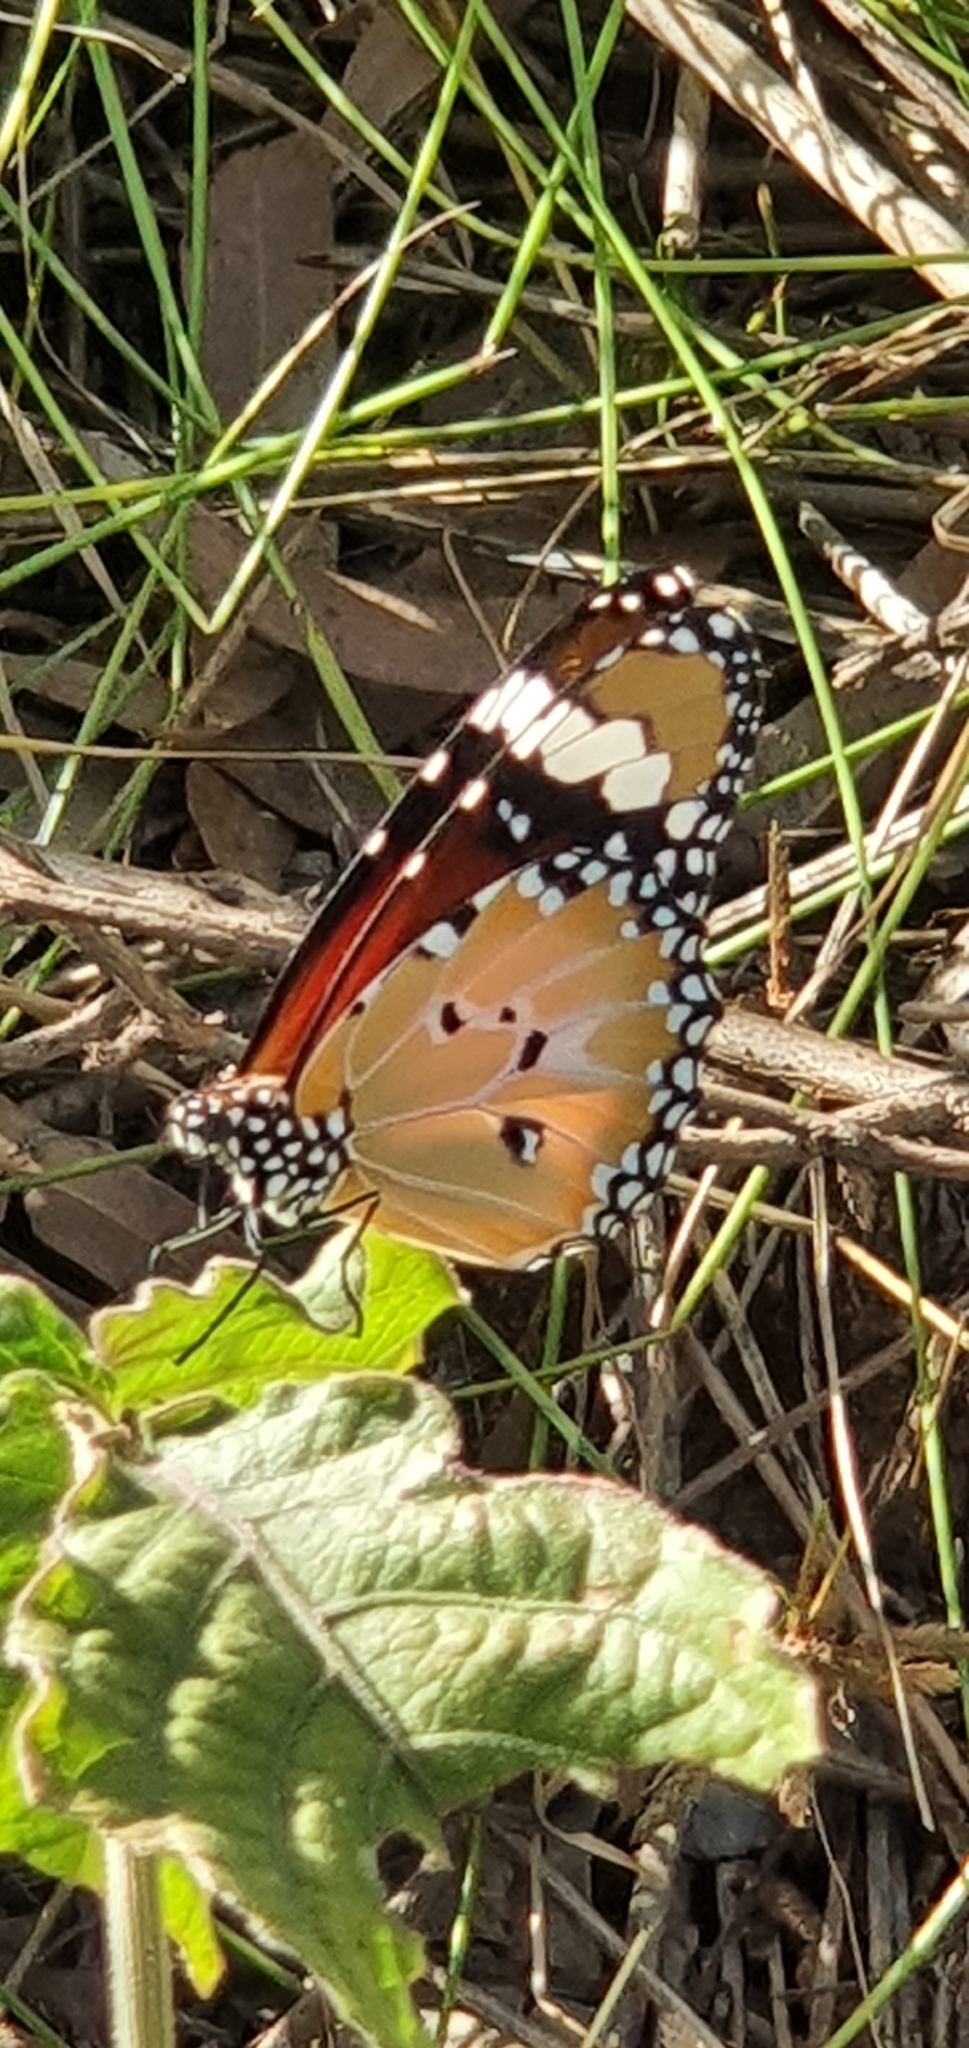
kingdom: Animalia
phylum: Arthropoda
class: Insecta
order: Lepidoptera
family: Nymphalidae
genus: Danaus
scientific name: Danaus chrysippus
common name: Plain tiger
